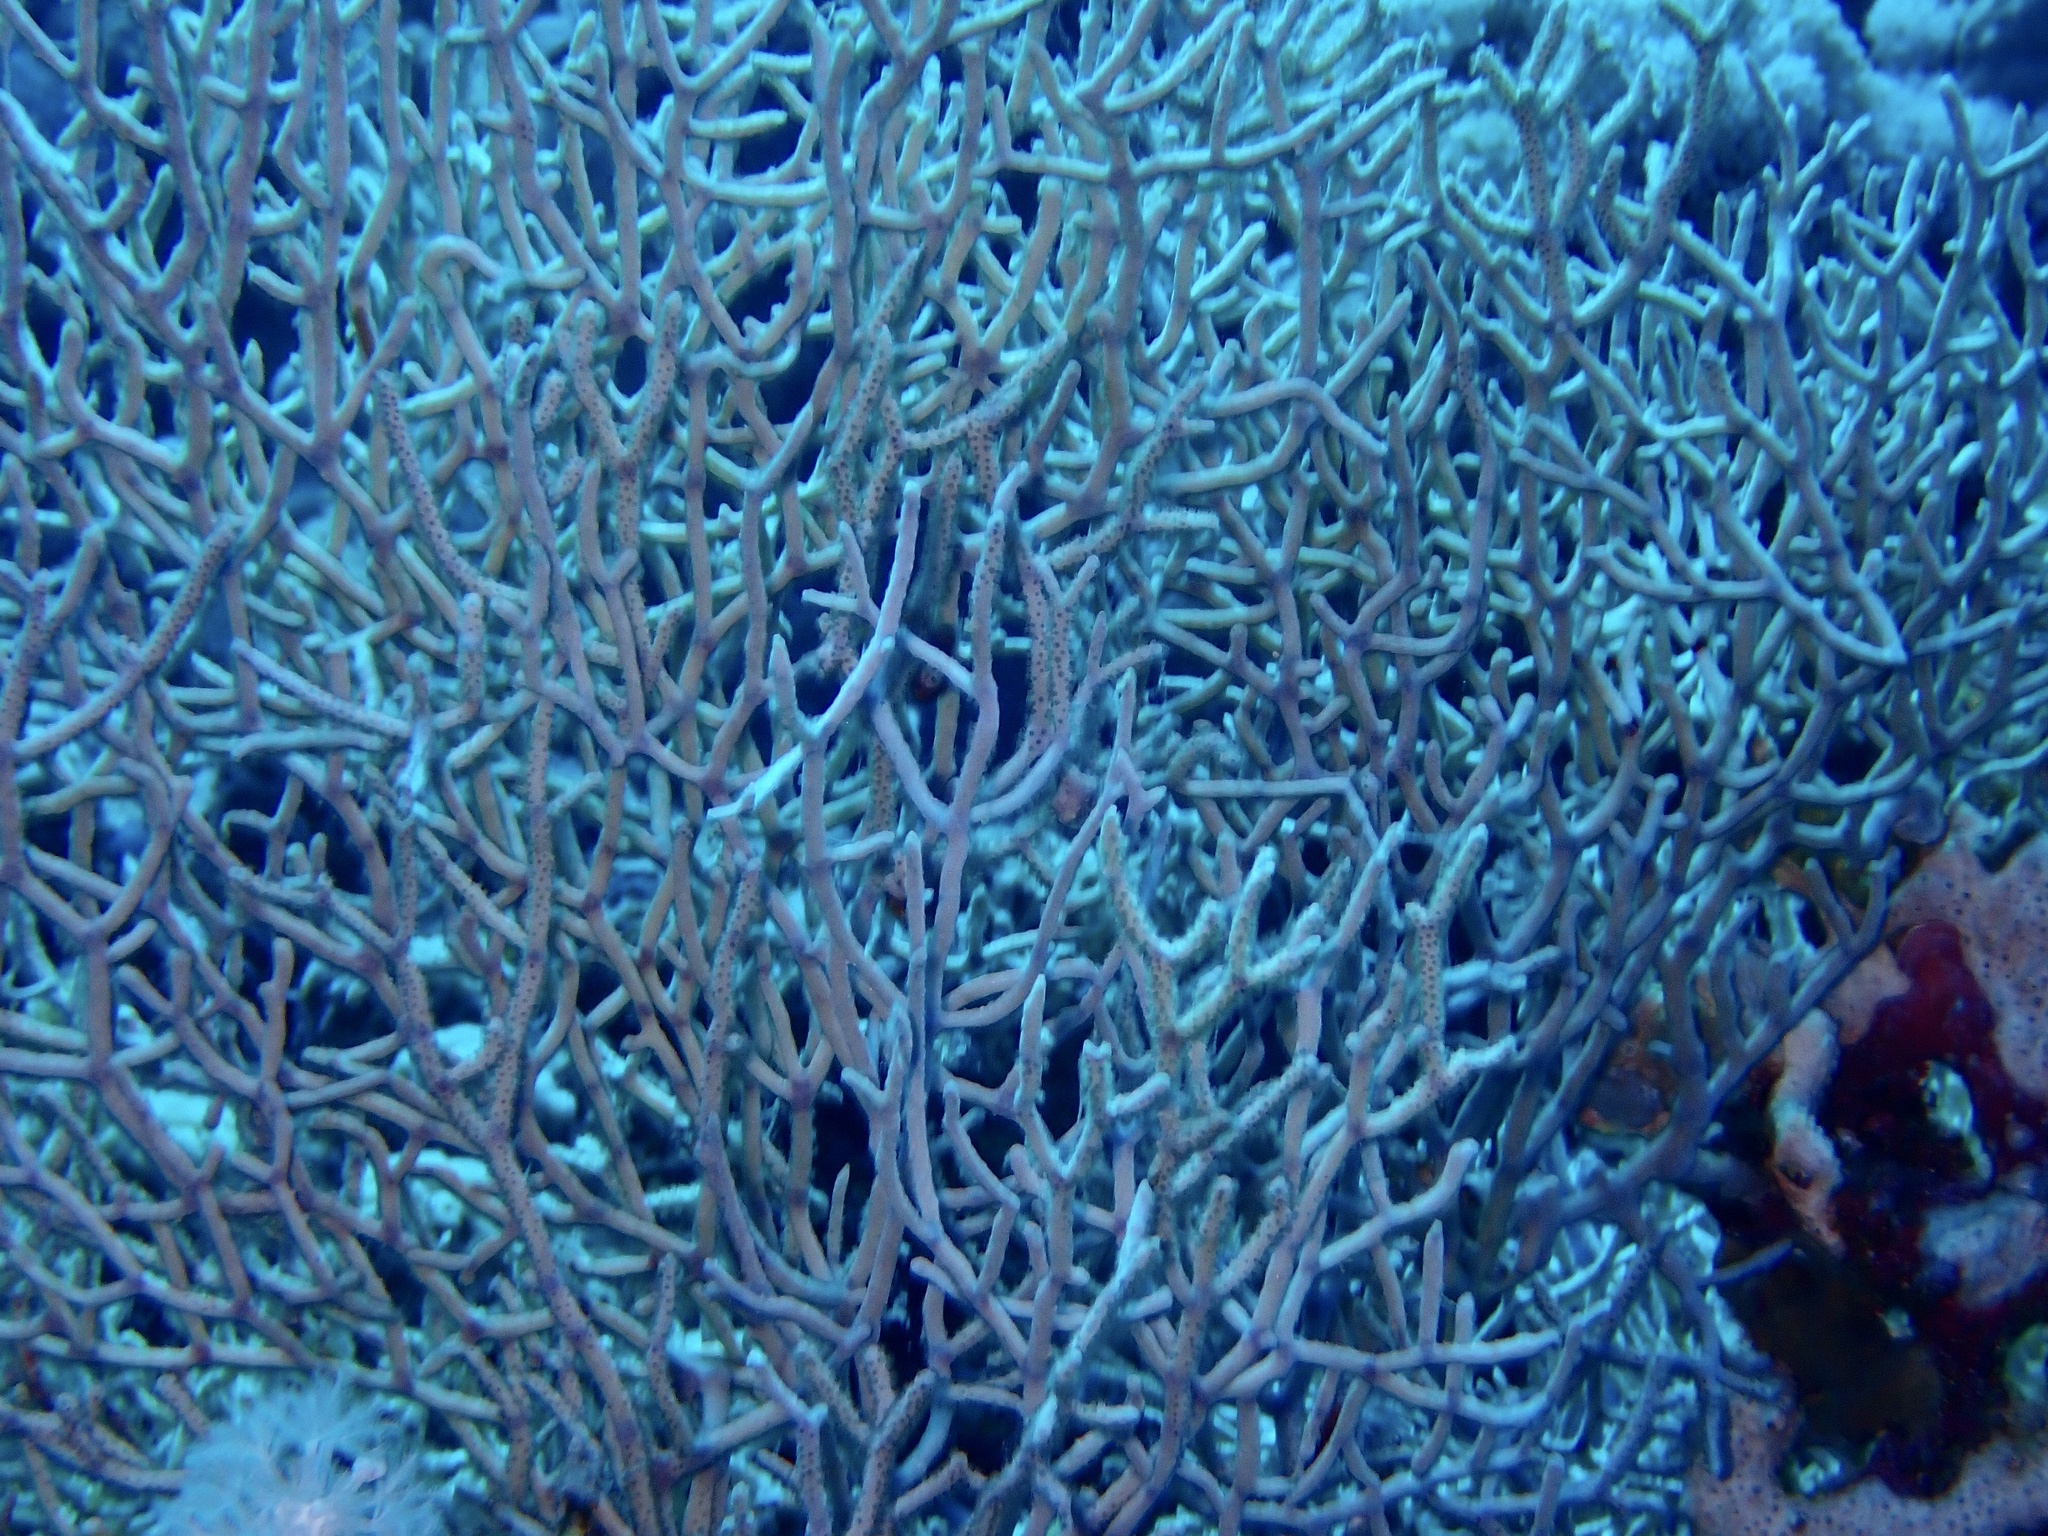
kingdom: Animalia
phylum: Cnidaria
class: Anthozoa
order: Malacalcyonacea
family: Melithaeidae
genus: Melithaea
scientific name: Melithaea rubrinodis
